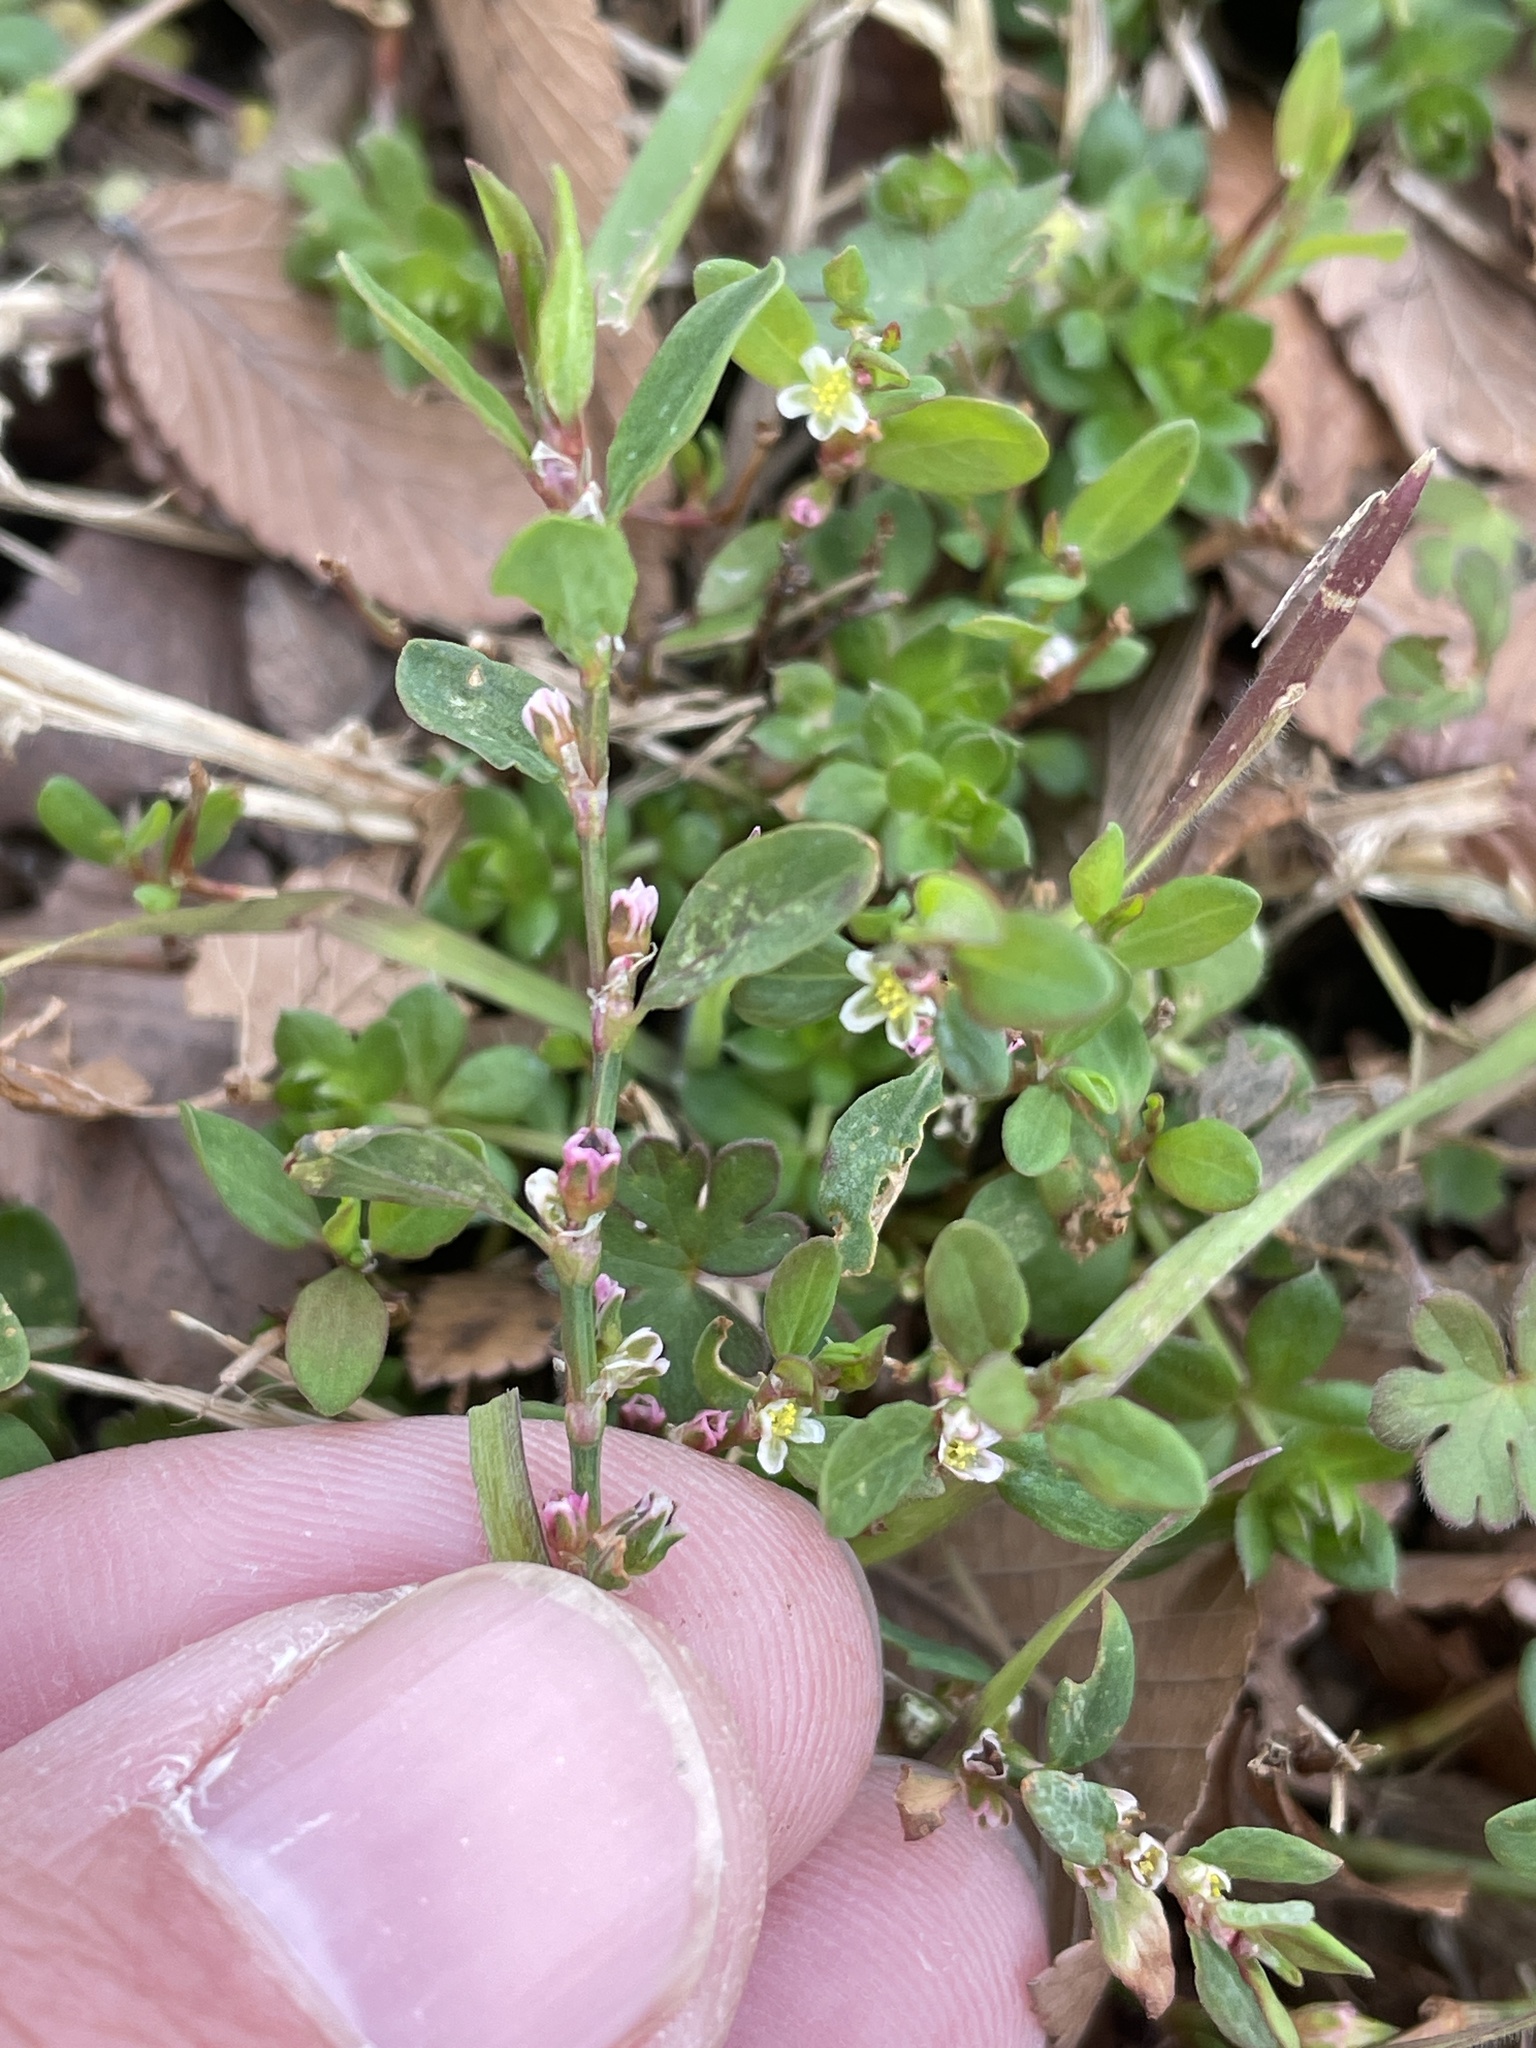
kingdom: Plantae
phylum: Tracheophyta
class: Magnoliopsida
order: Caryophyllales
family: Polygonaceae
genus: Polygonum
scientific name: Polygonum aviculare
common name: Prostrate knotweed
